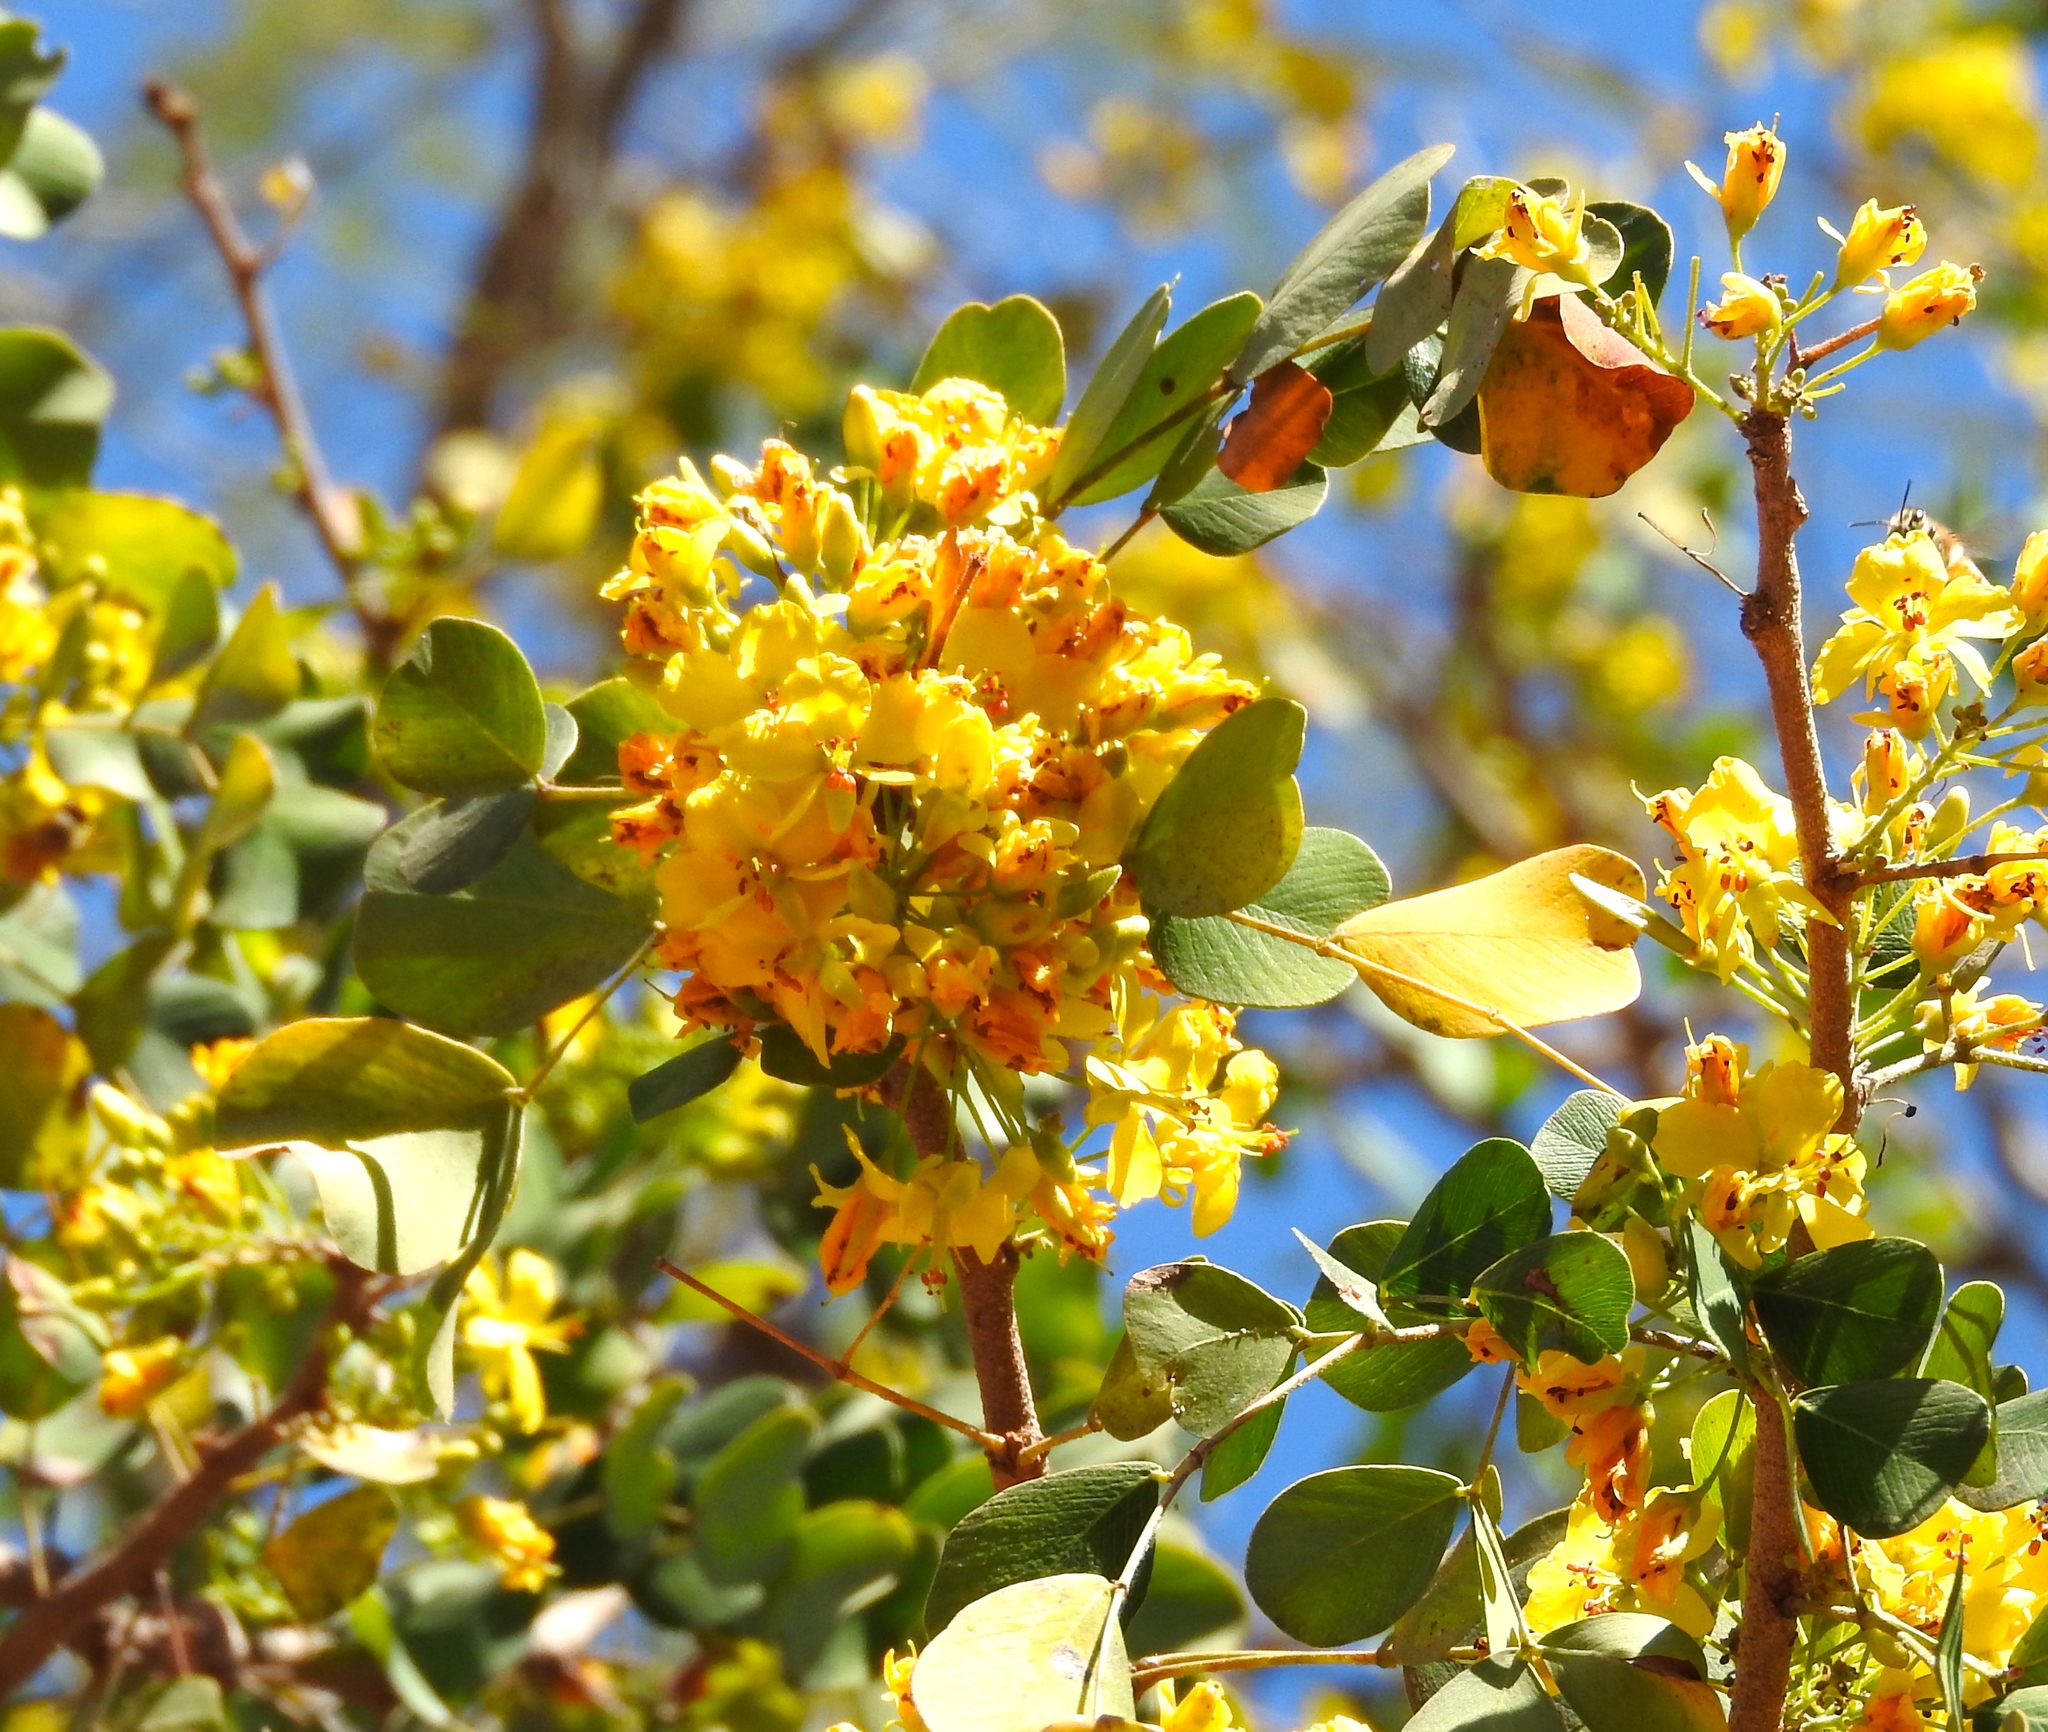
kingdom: Plantae
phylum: Tracheophyta
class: Magnoliopsida
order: Fabales
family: Fabaceae
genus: Haematoxylum
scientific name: Haematoxylum brasiletto
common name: Peachwood
